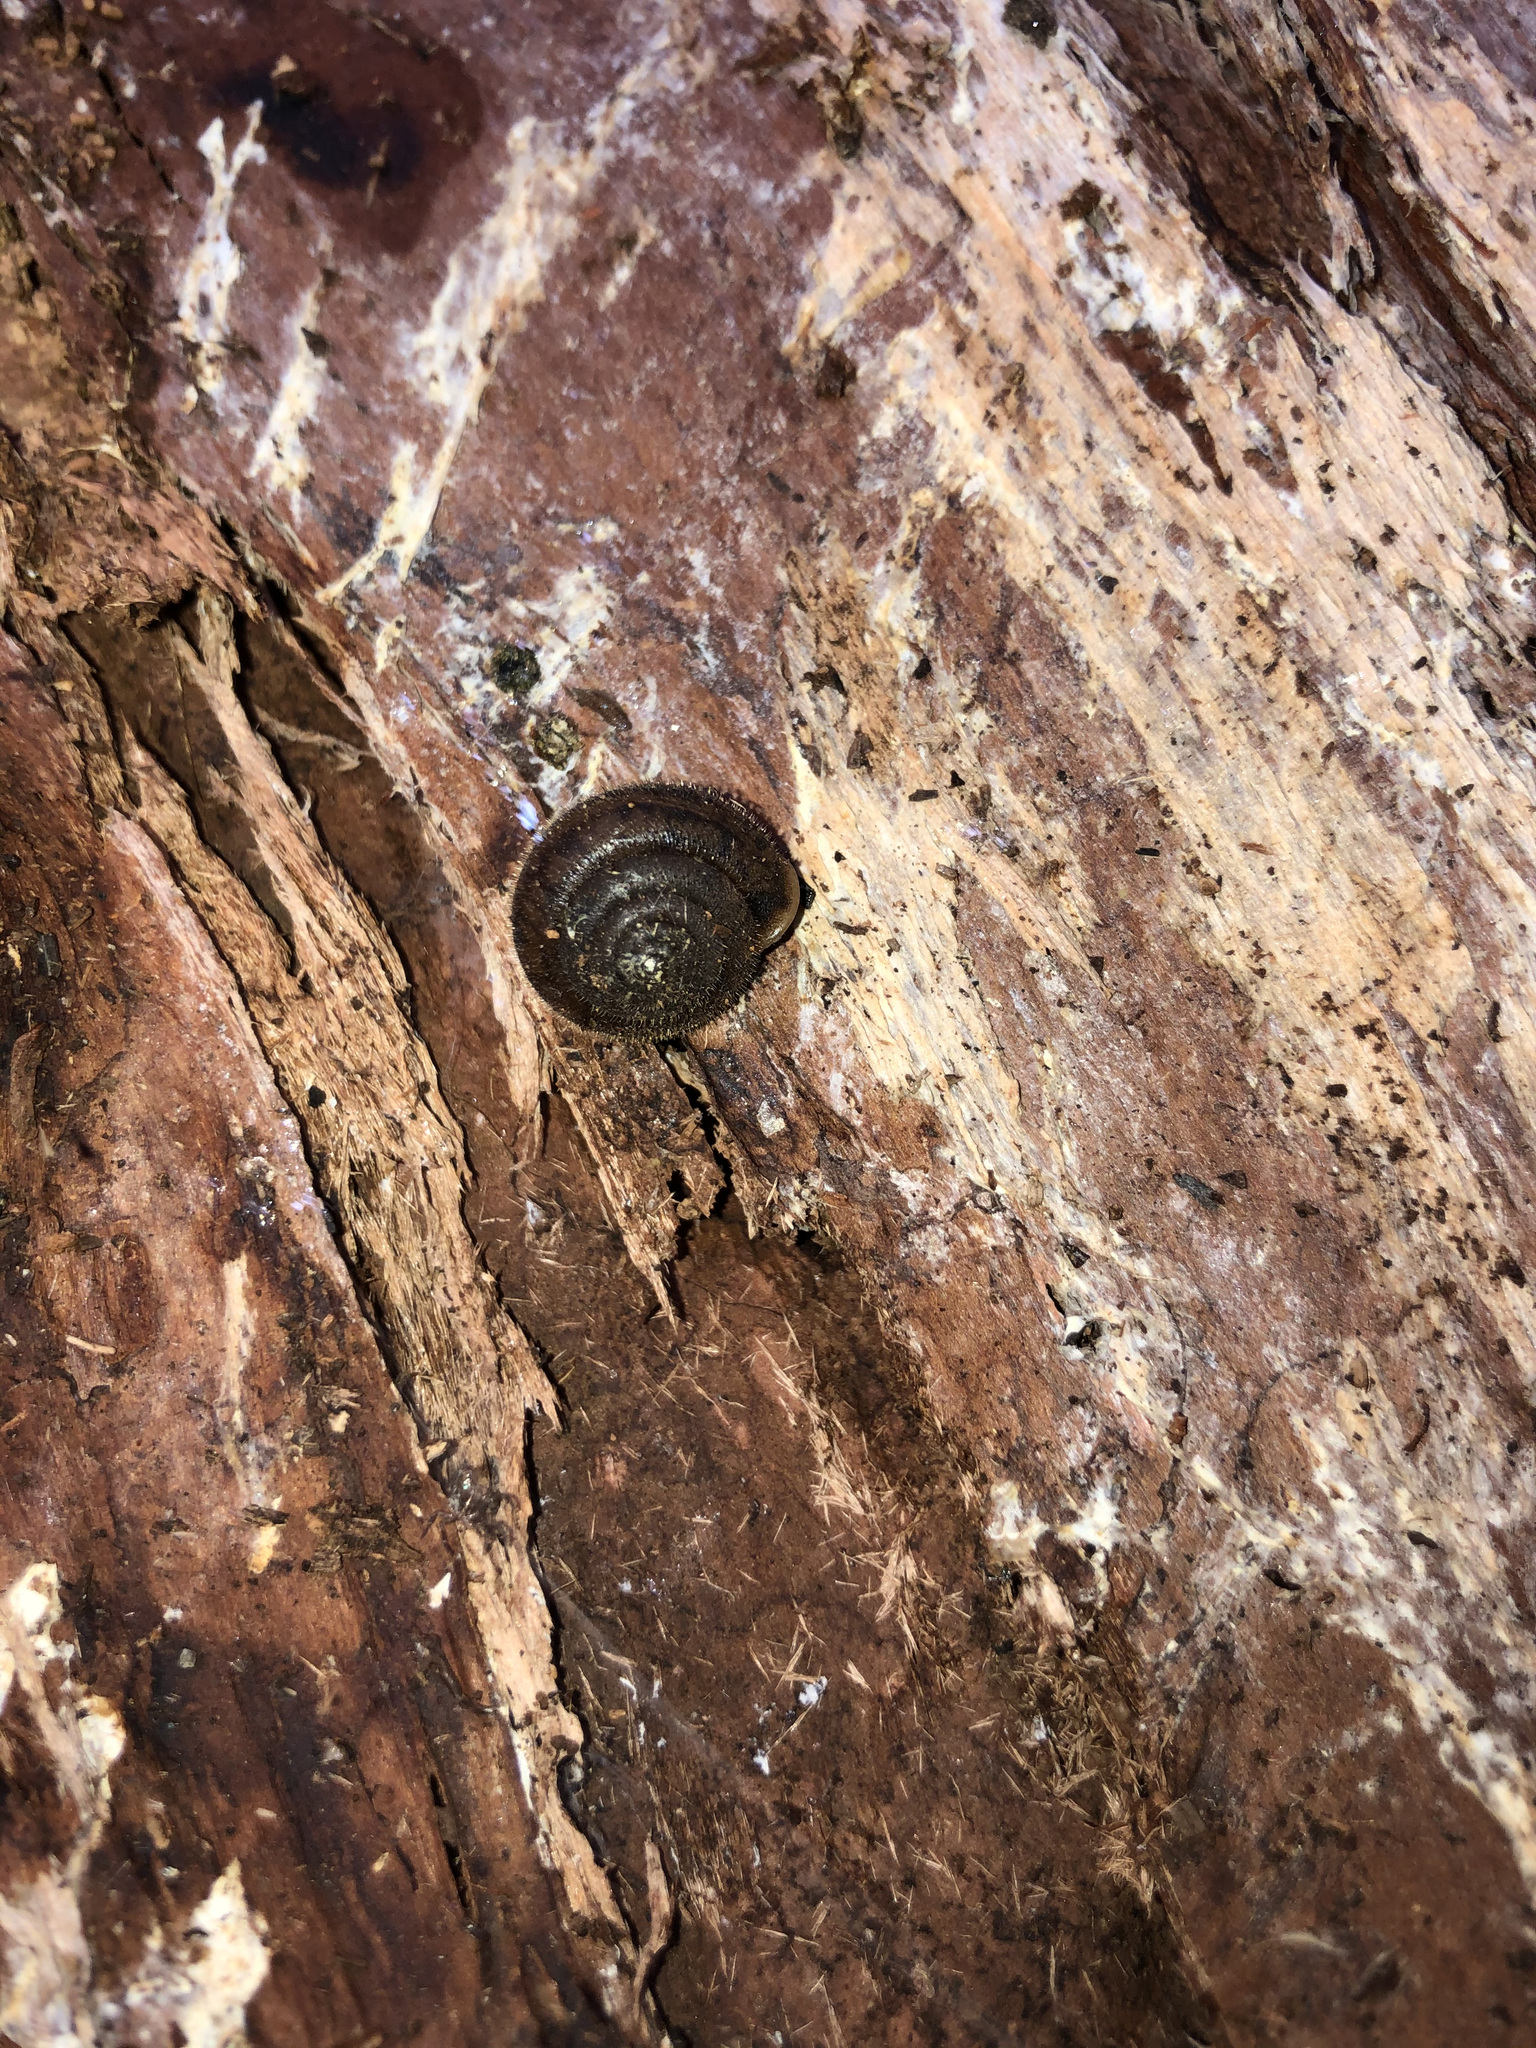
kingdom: Animalia
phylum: Mollusca
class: Gastropoda
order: Stylommatophora
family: Polygyridae
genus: Vespericola
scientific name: Vespericola columbianus
